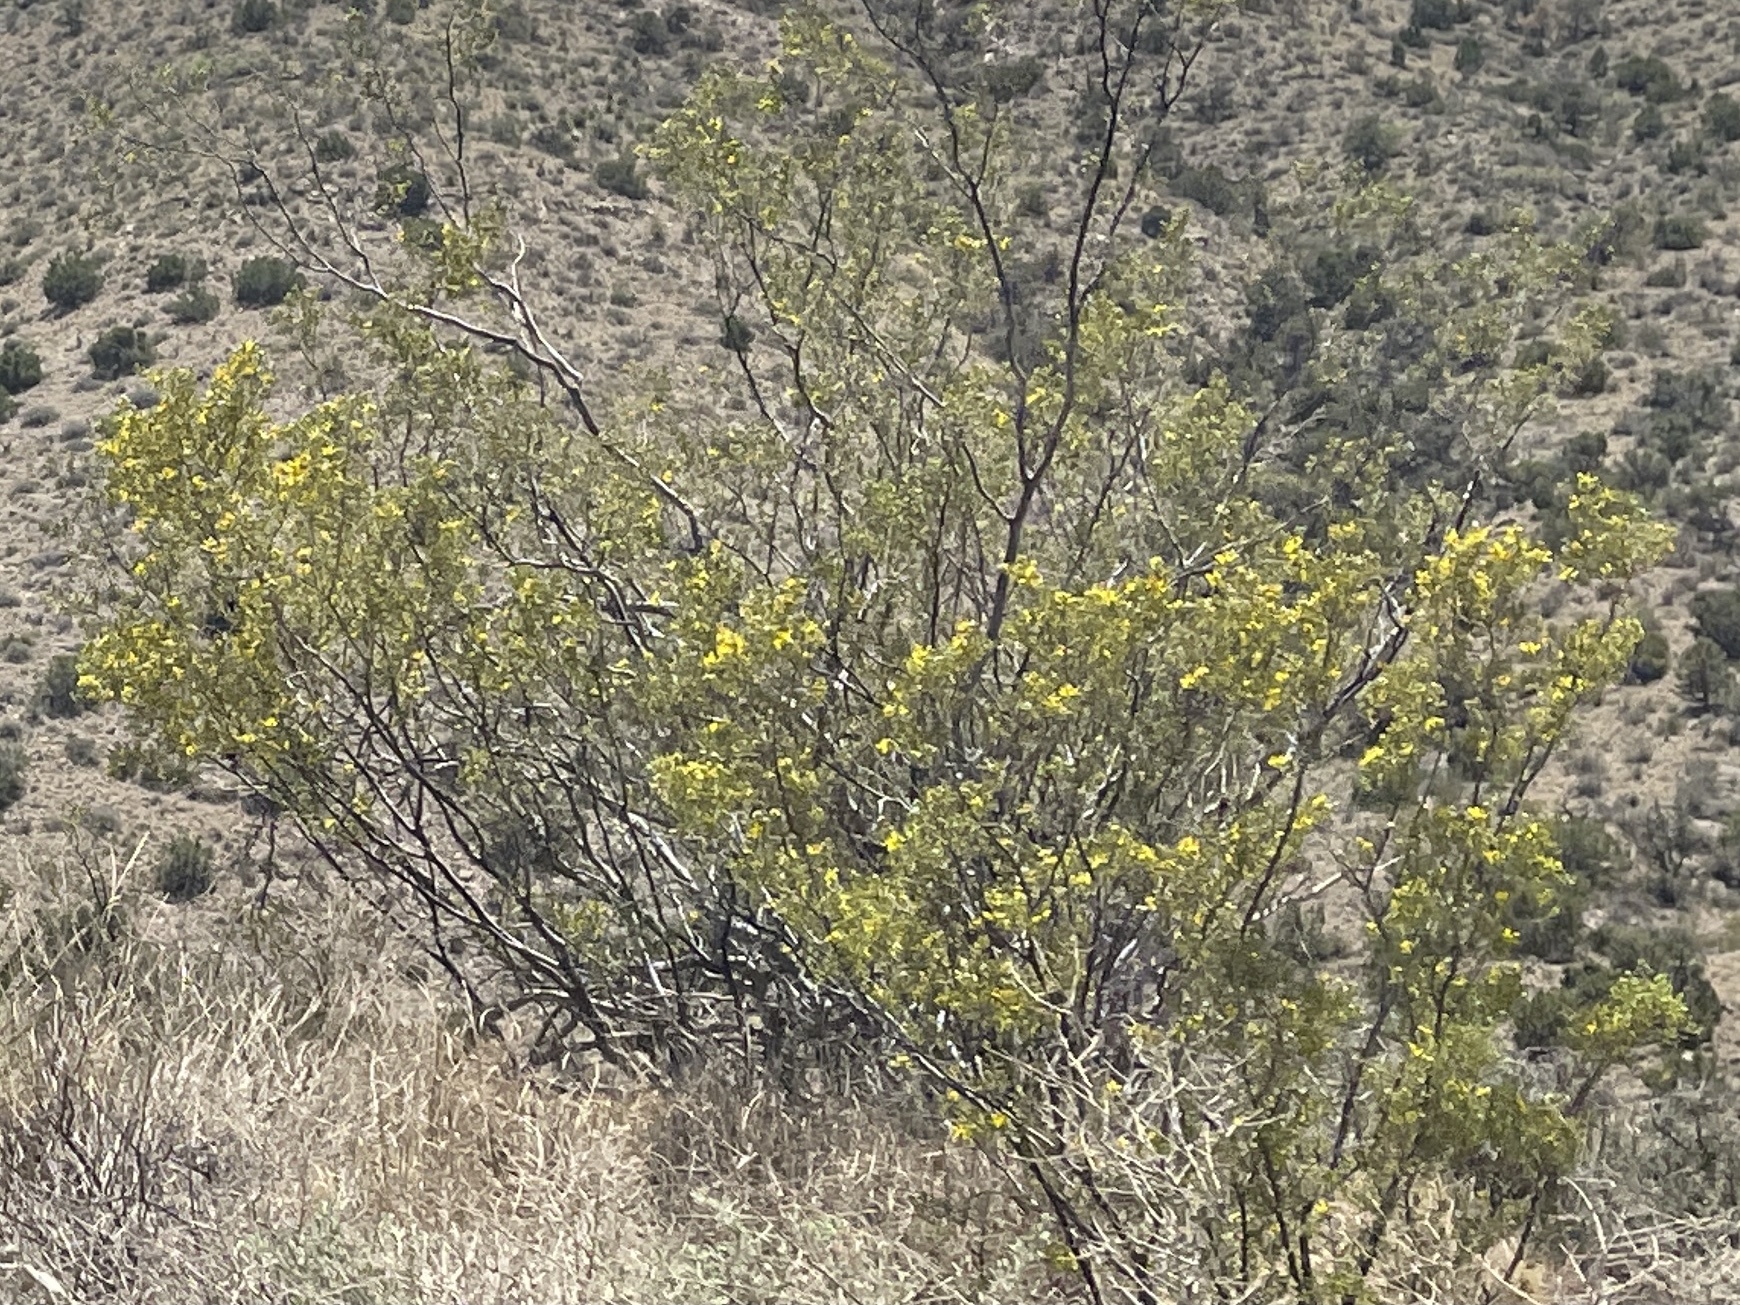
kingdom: Plantae
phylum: Tracheophyta
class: Magnoliopsida
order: Zygophyllales
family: Zygophyllaceae
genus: Larrea
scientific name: Larrea tridentata
